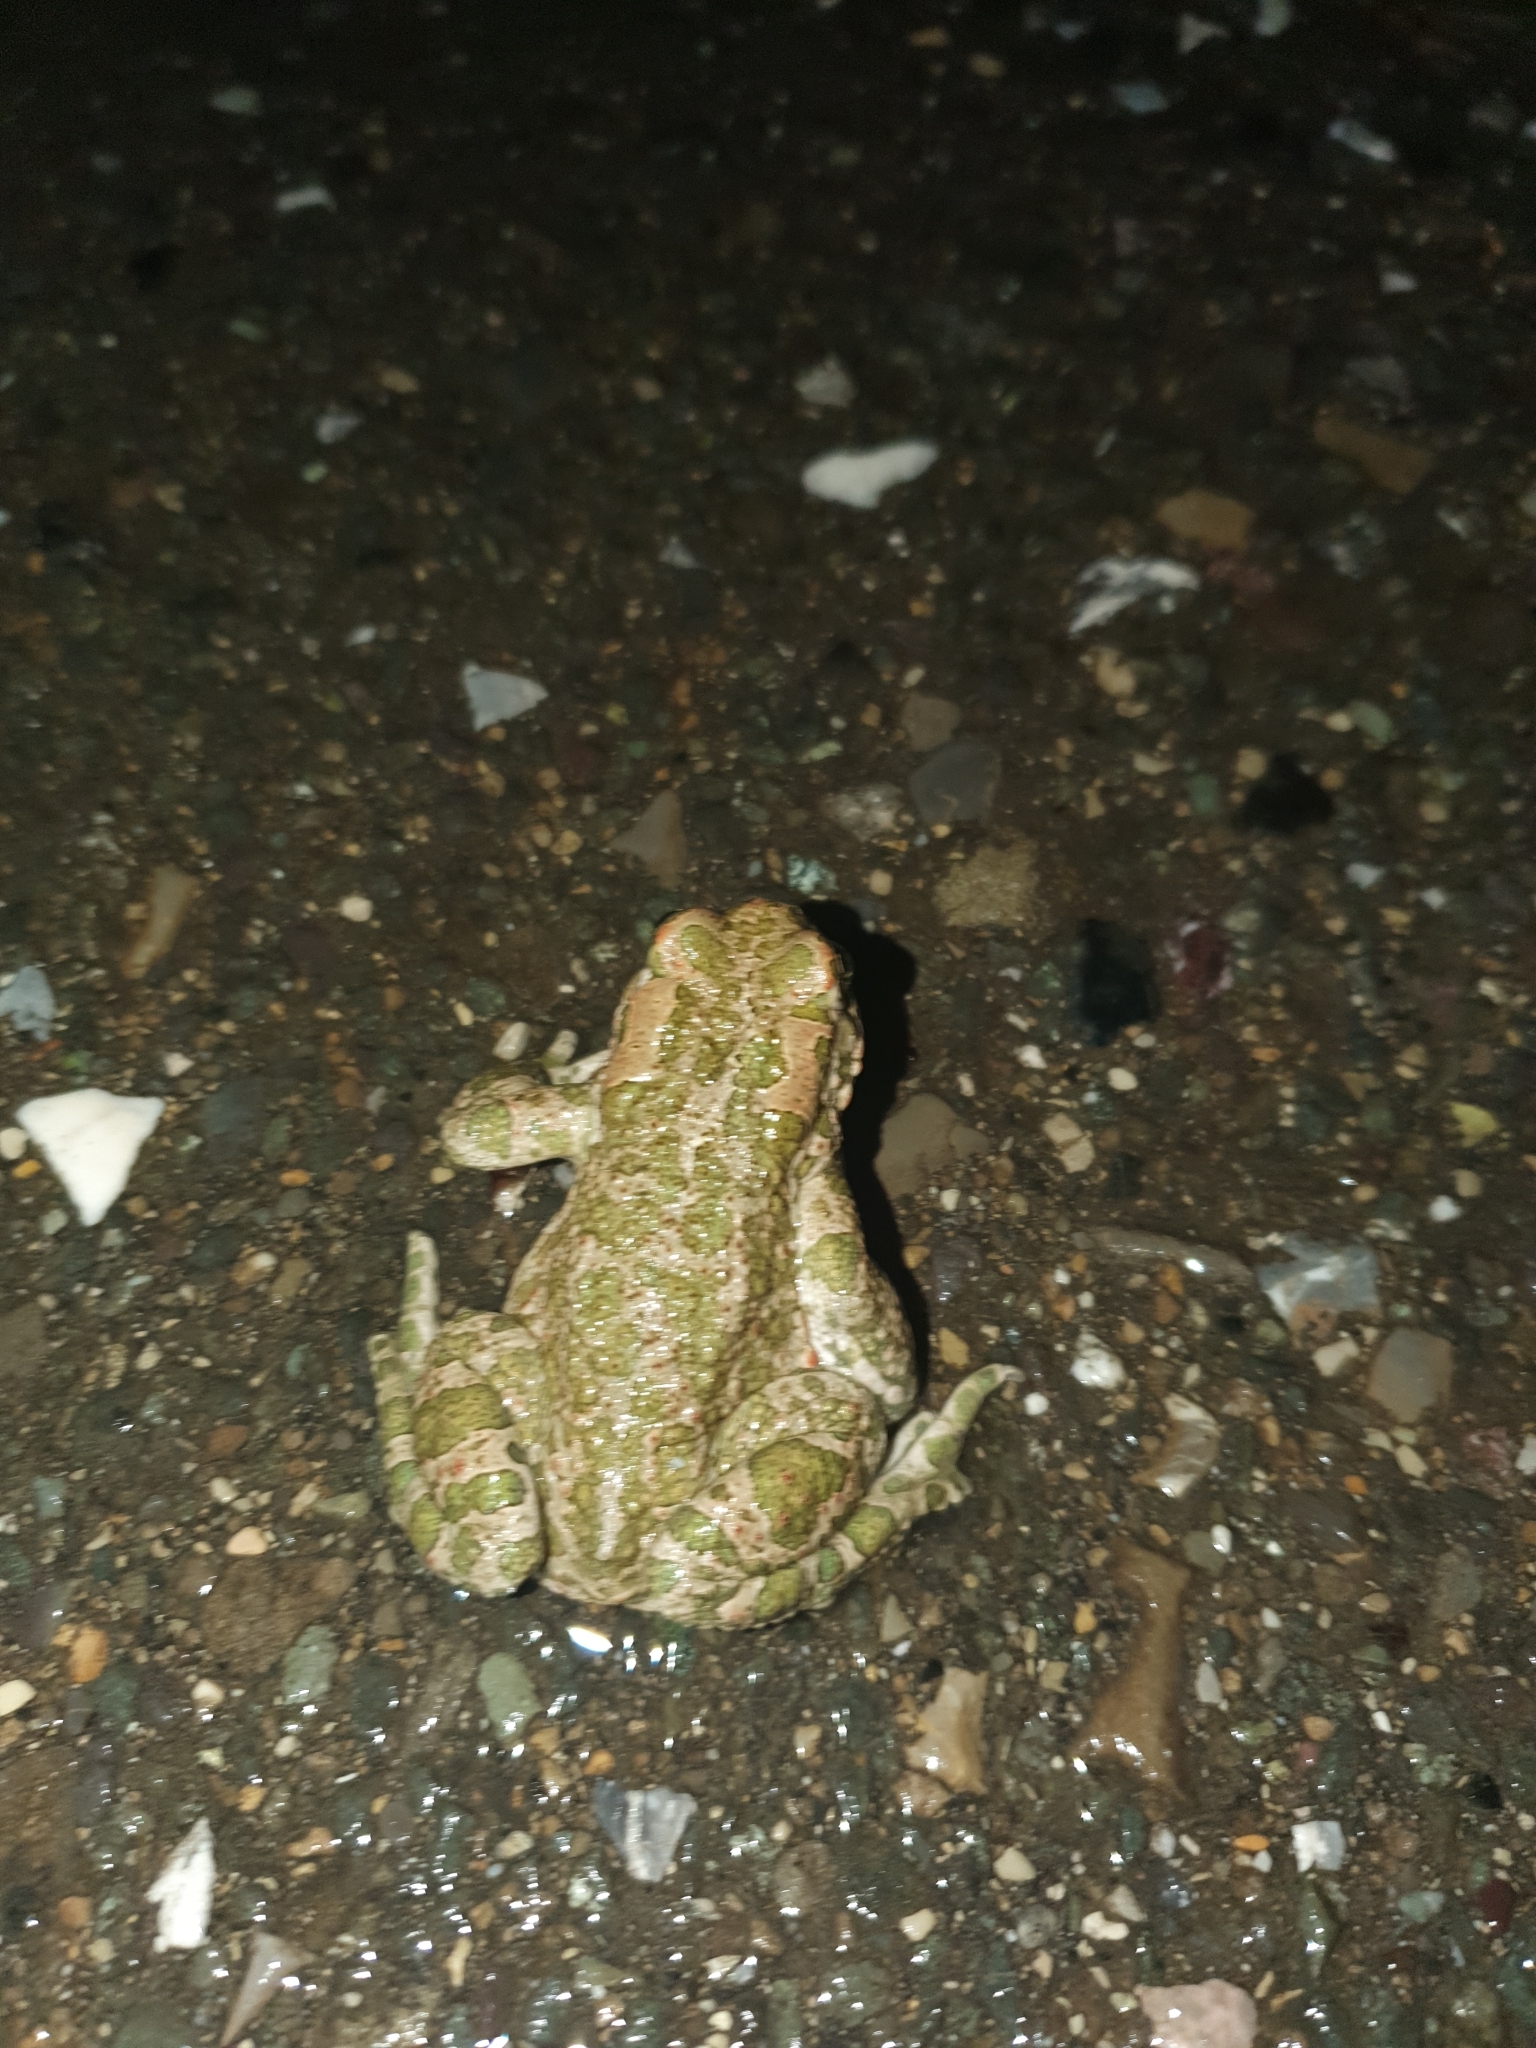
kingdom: Animalia
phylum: Chordata
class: Amphibia
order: Anura
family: Bufonidae
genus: Bufotes
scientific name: Bufotes viridis
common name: European green toad
